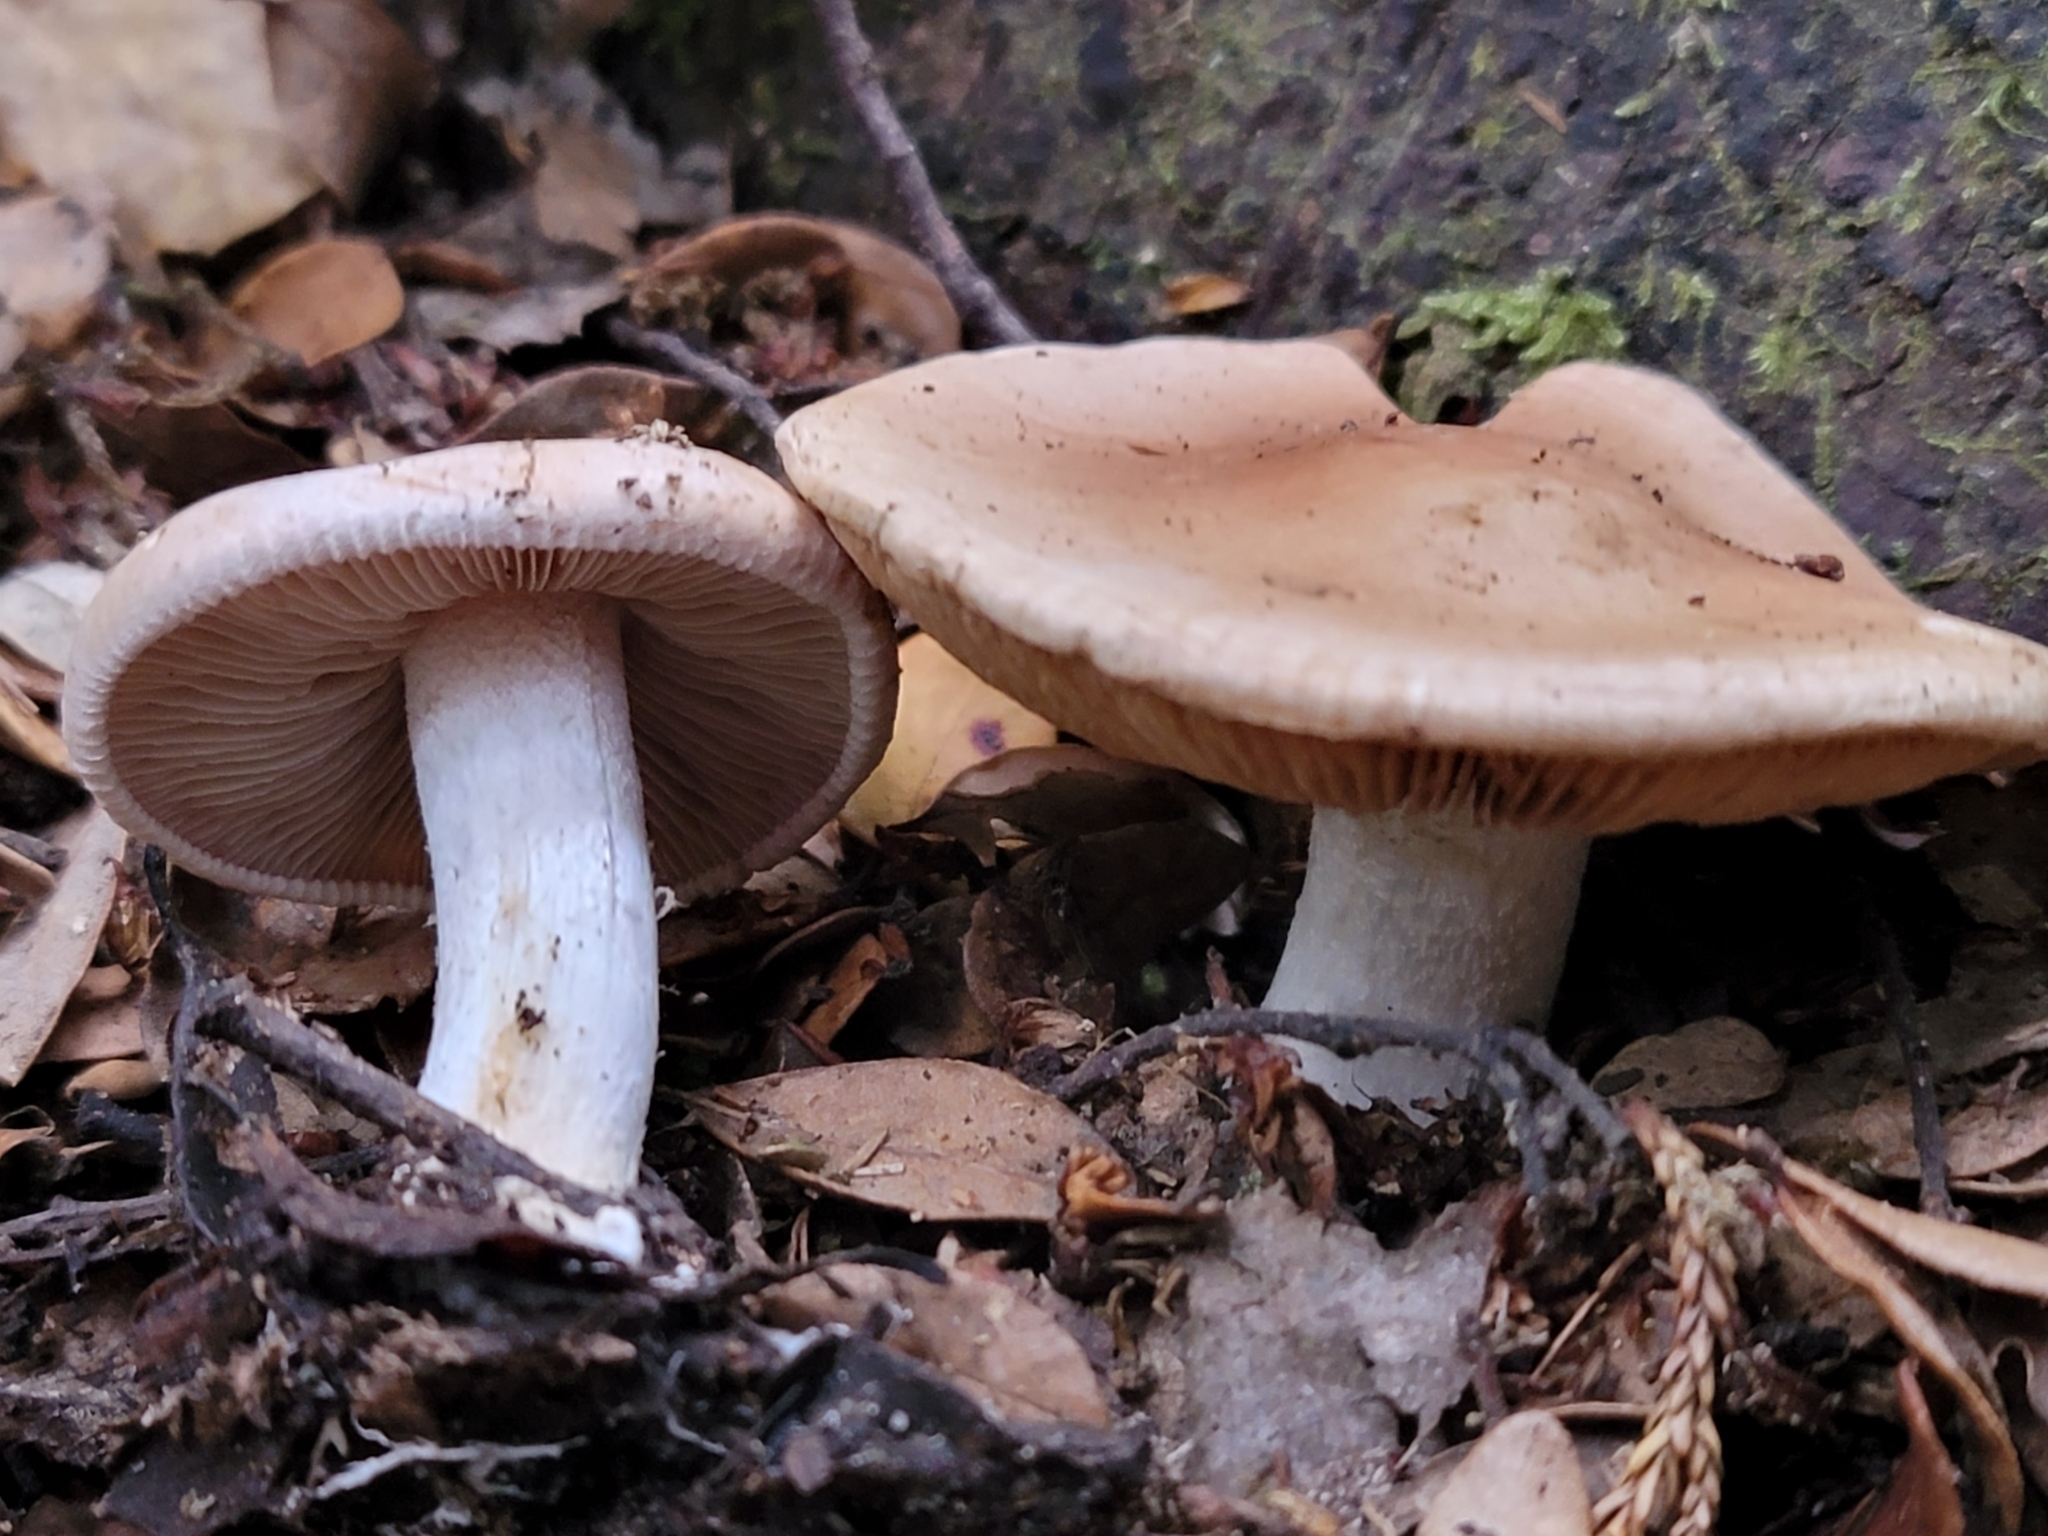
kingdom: Fungi
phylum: Basidiomycota
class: Agaricomycetes
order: Agaricales
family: Hymenogastraceae
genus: Hebeloma
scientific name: Hebeloma mediorufum
